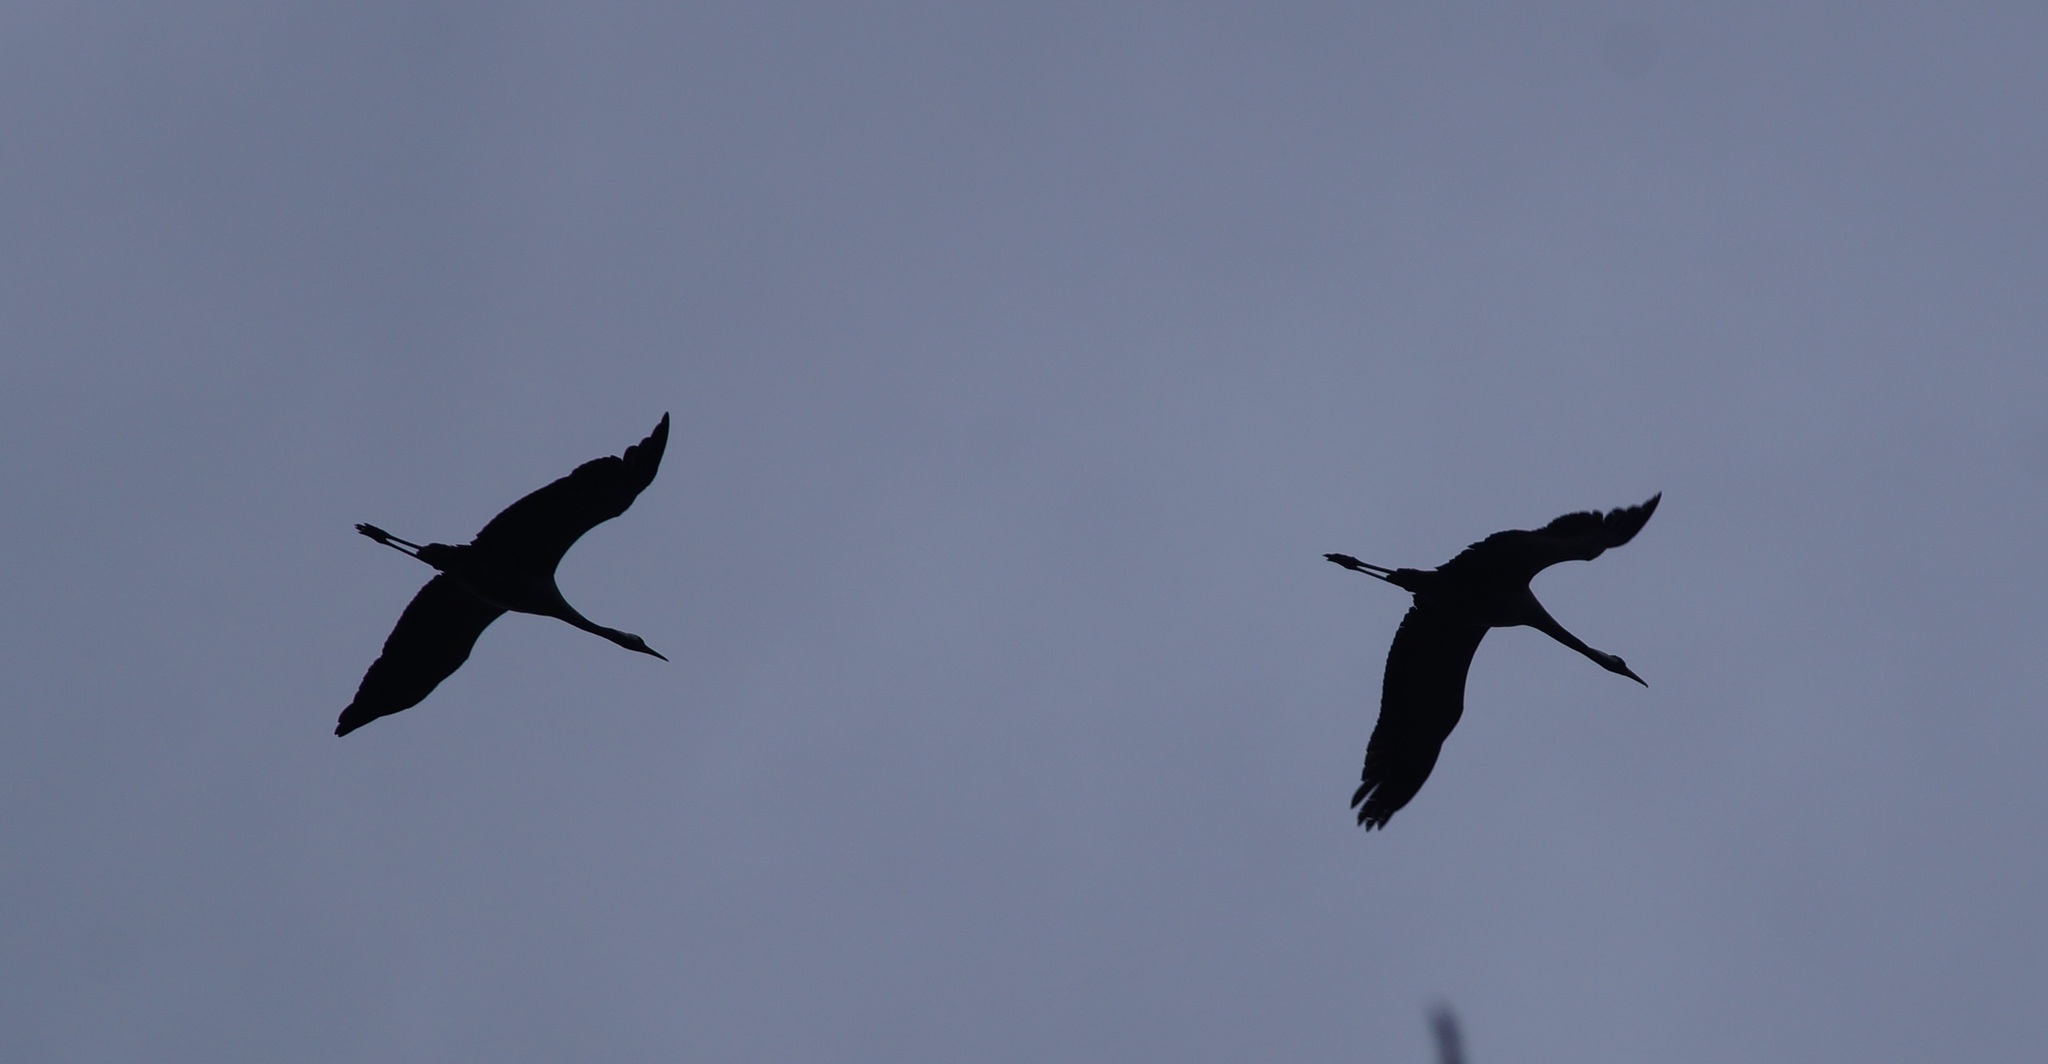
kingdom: Animalia
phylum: Chordata
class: Aves
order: Gruiformes
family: Gruidae
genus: Grus
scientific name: Grus grus
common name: Common crane
